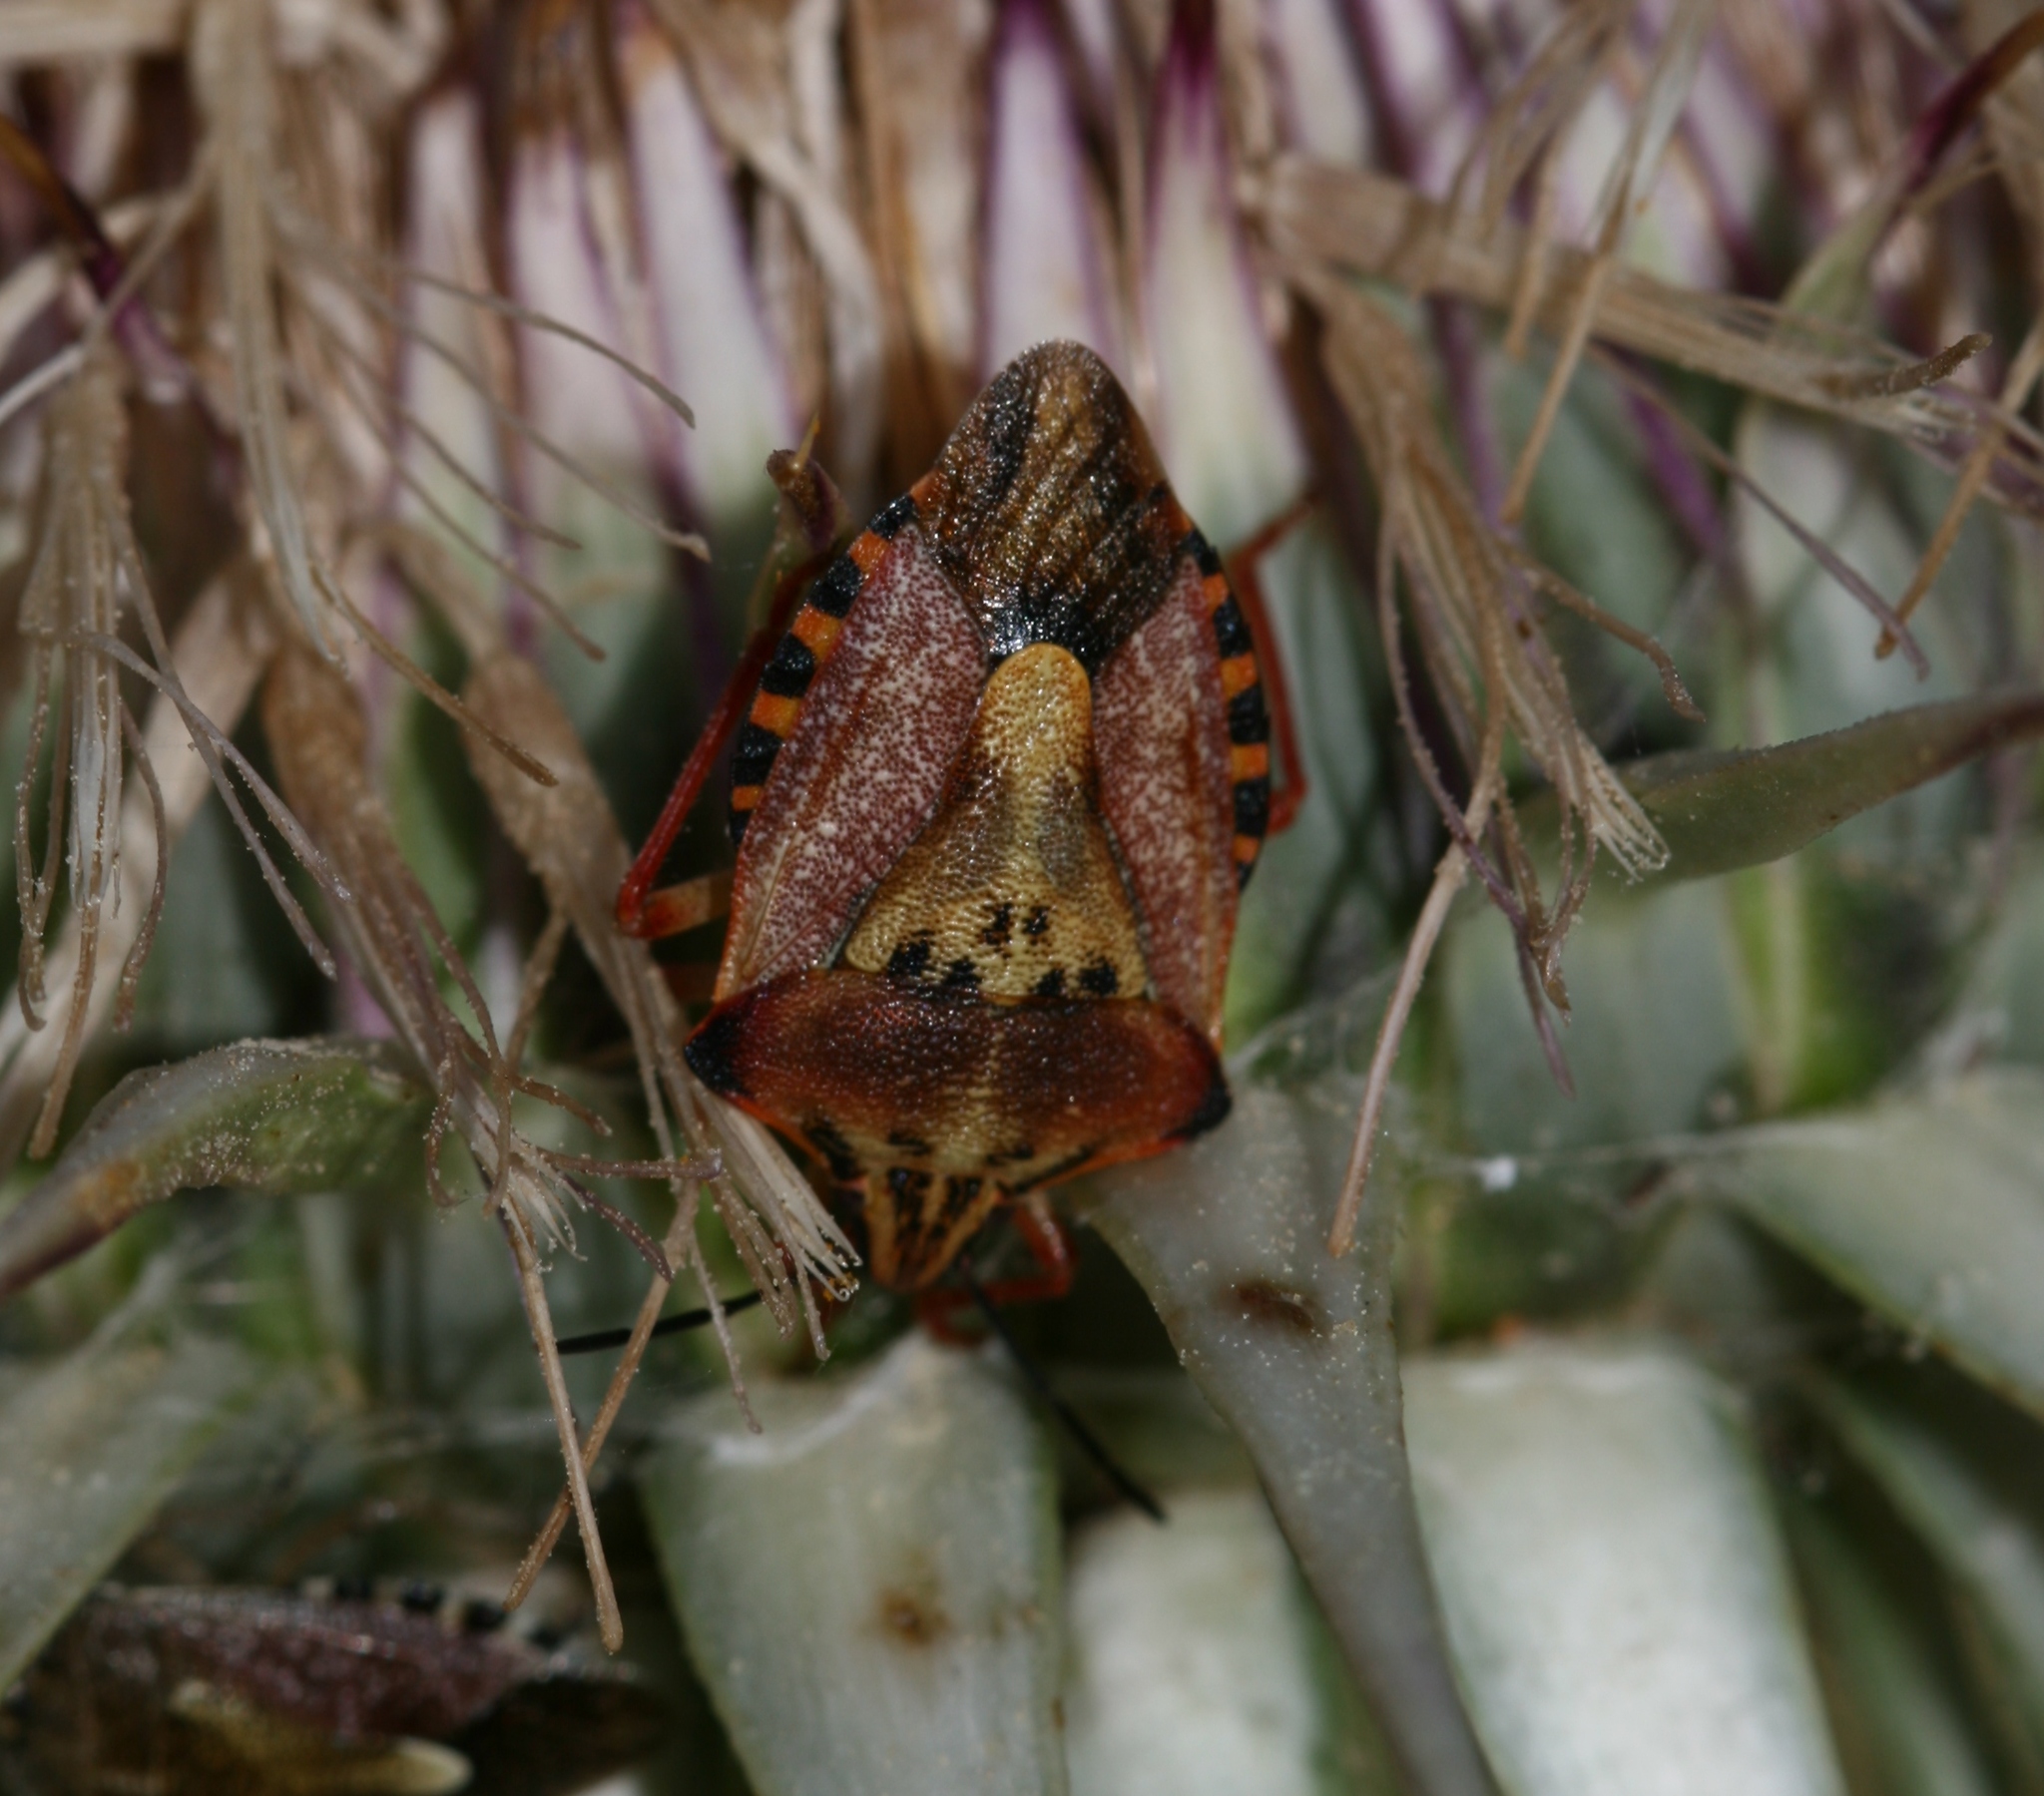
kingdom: Animalia
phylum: Arthropoda
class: Insecta
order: Hemiptera
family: Pentatomidae
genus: Carpocoris
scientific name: Carpocoris mediterraneus
